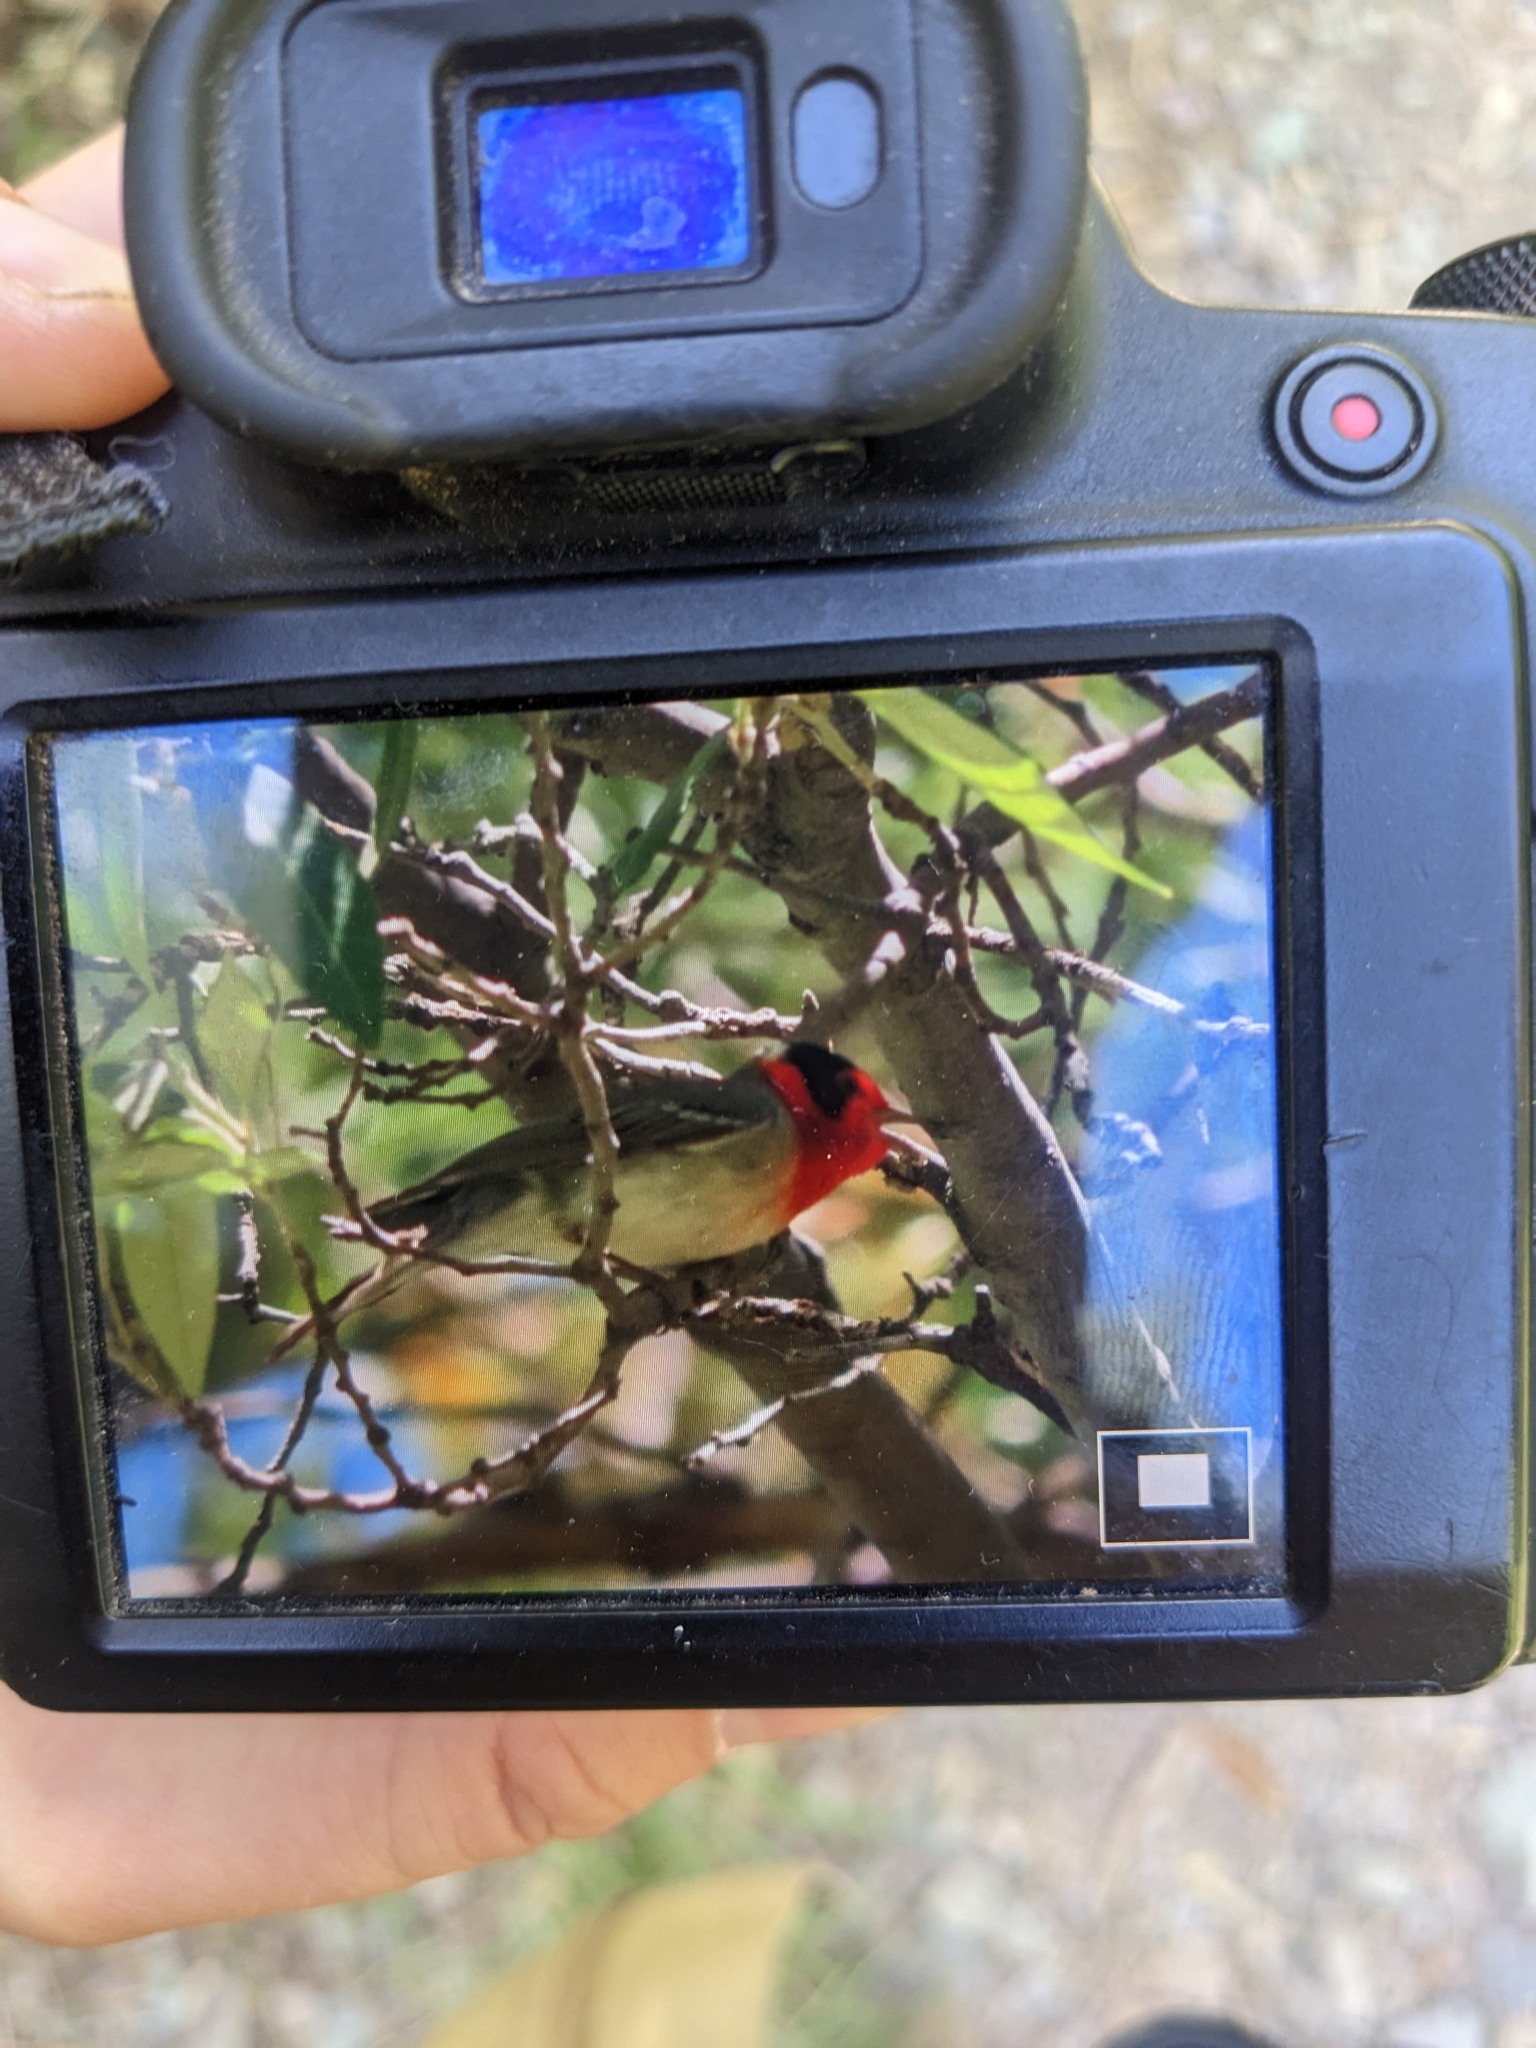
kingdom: Animalia
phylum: Chordata
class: Aves
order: Passeriformes
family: Parulidae
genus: Cardellina
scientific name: Cardellina rubrifrons
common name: Red-faced warbler
